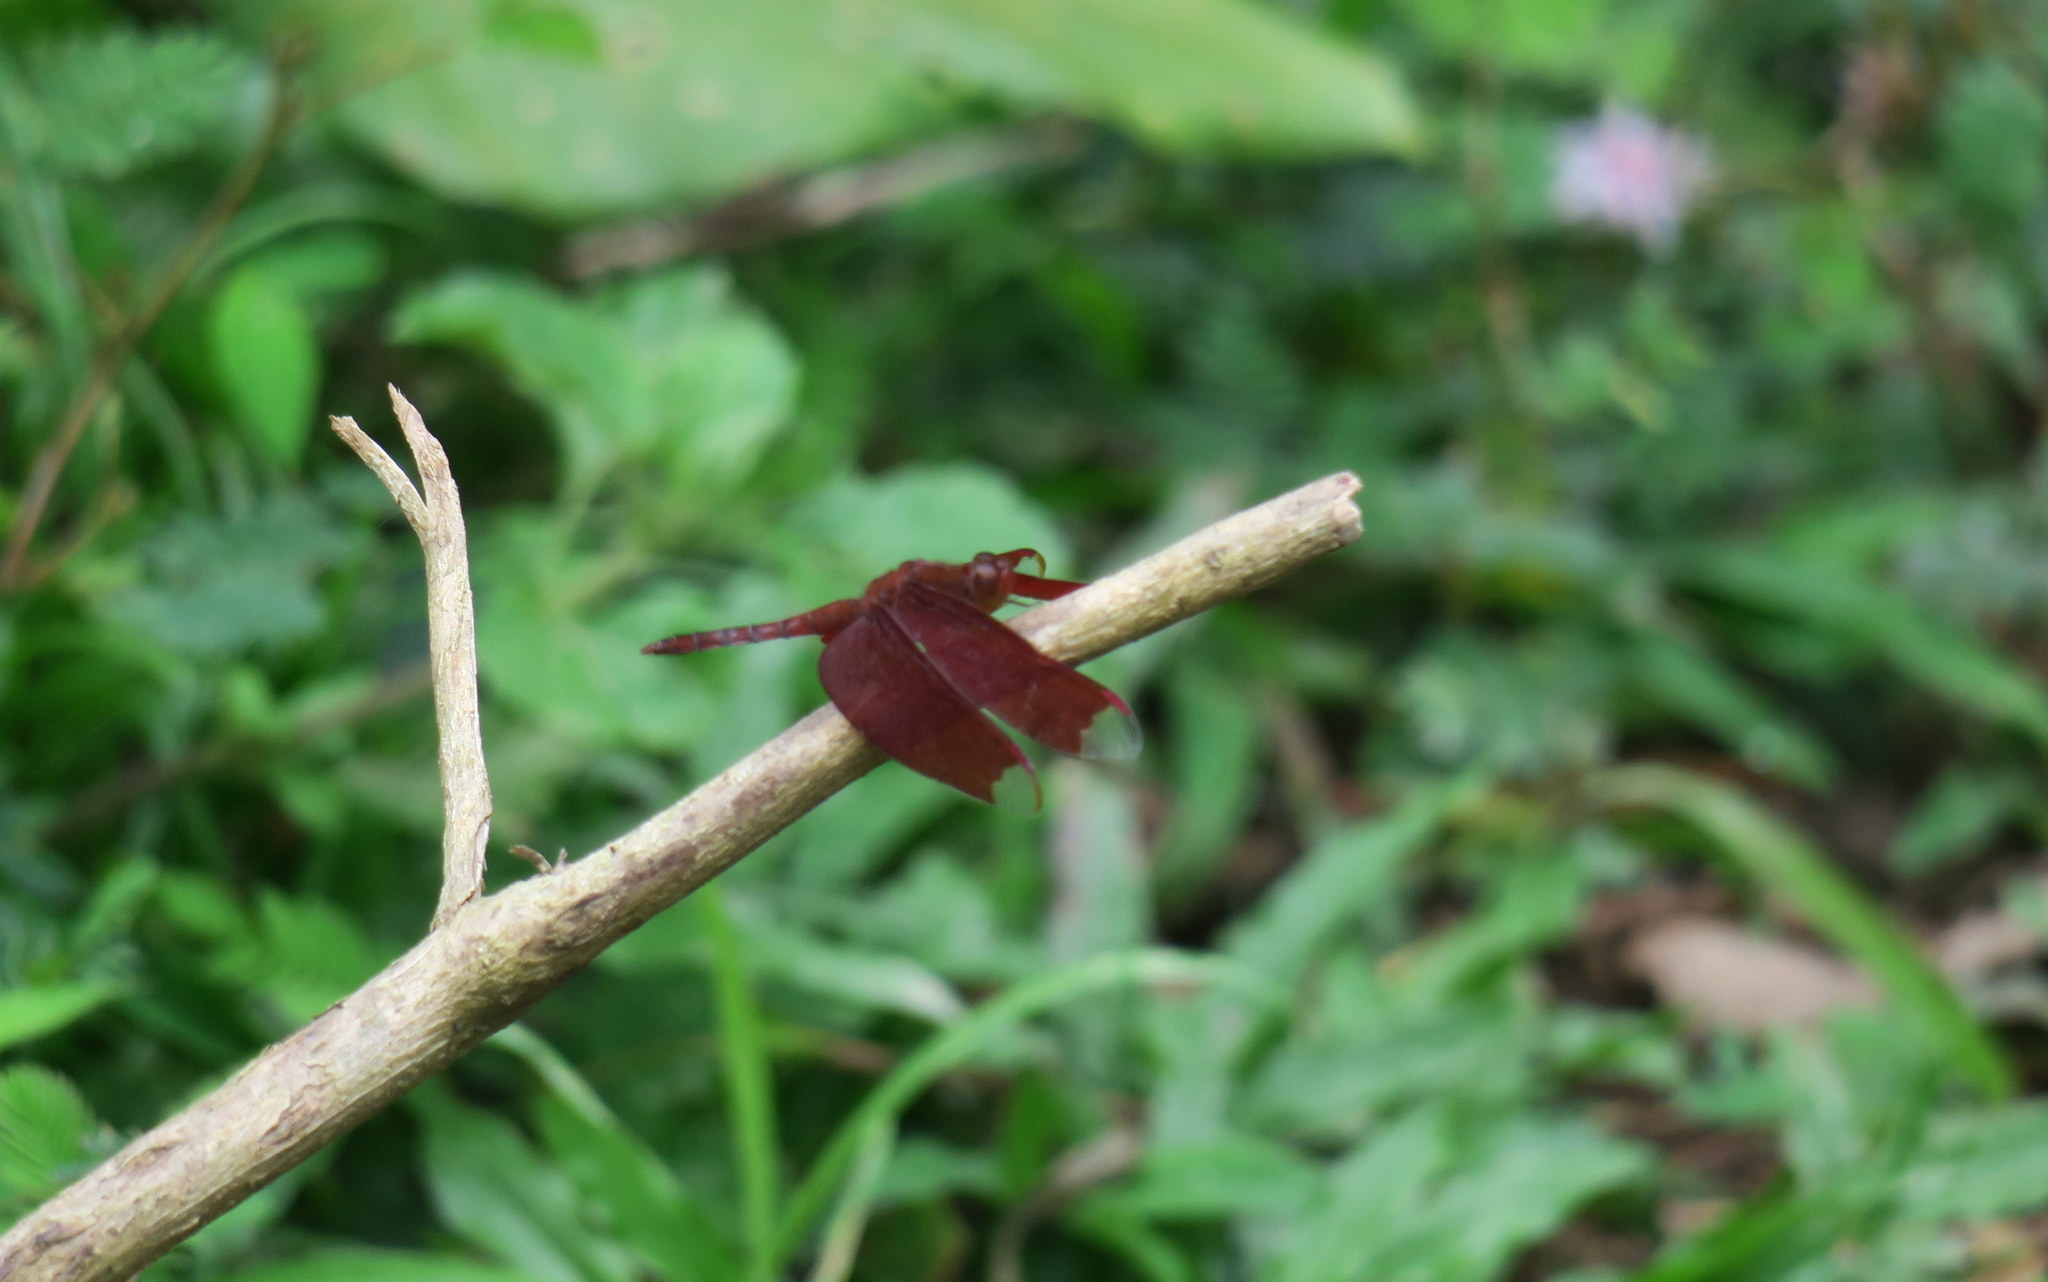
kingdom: Animalia
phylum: Arthropoda
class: Insecta
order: Odonata
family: Libellulidae
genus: Neurothemis
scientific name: Neurothemis fulvia
